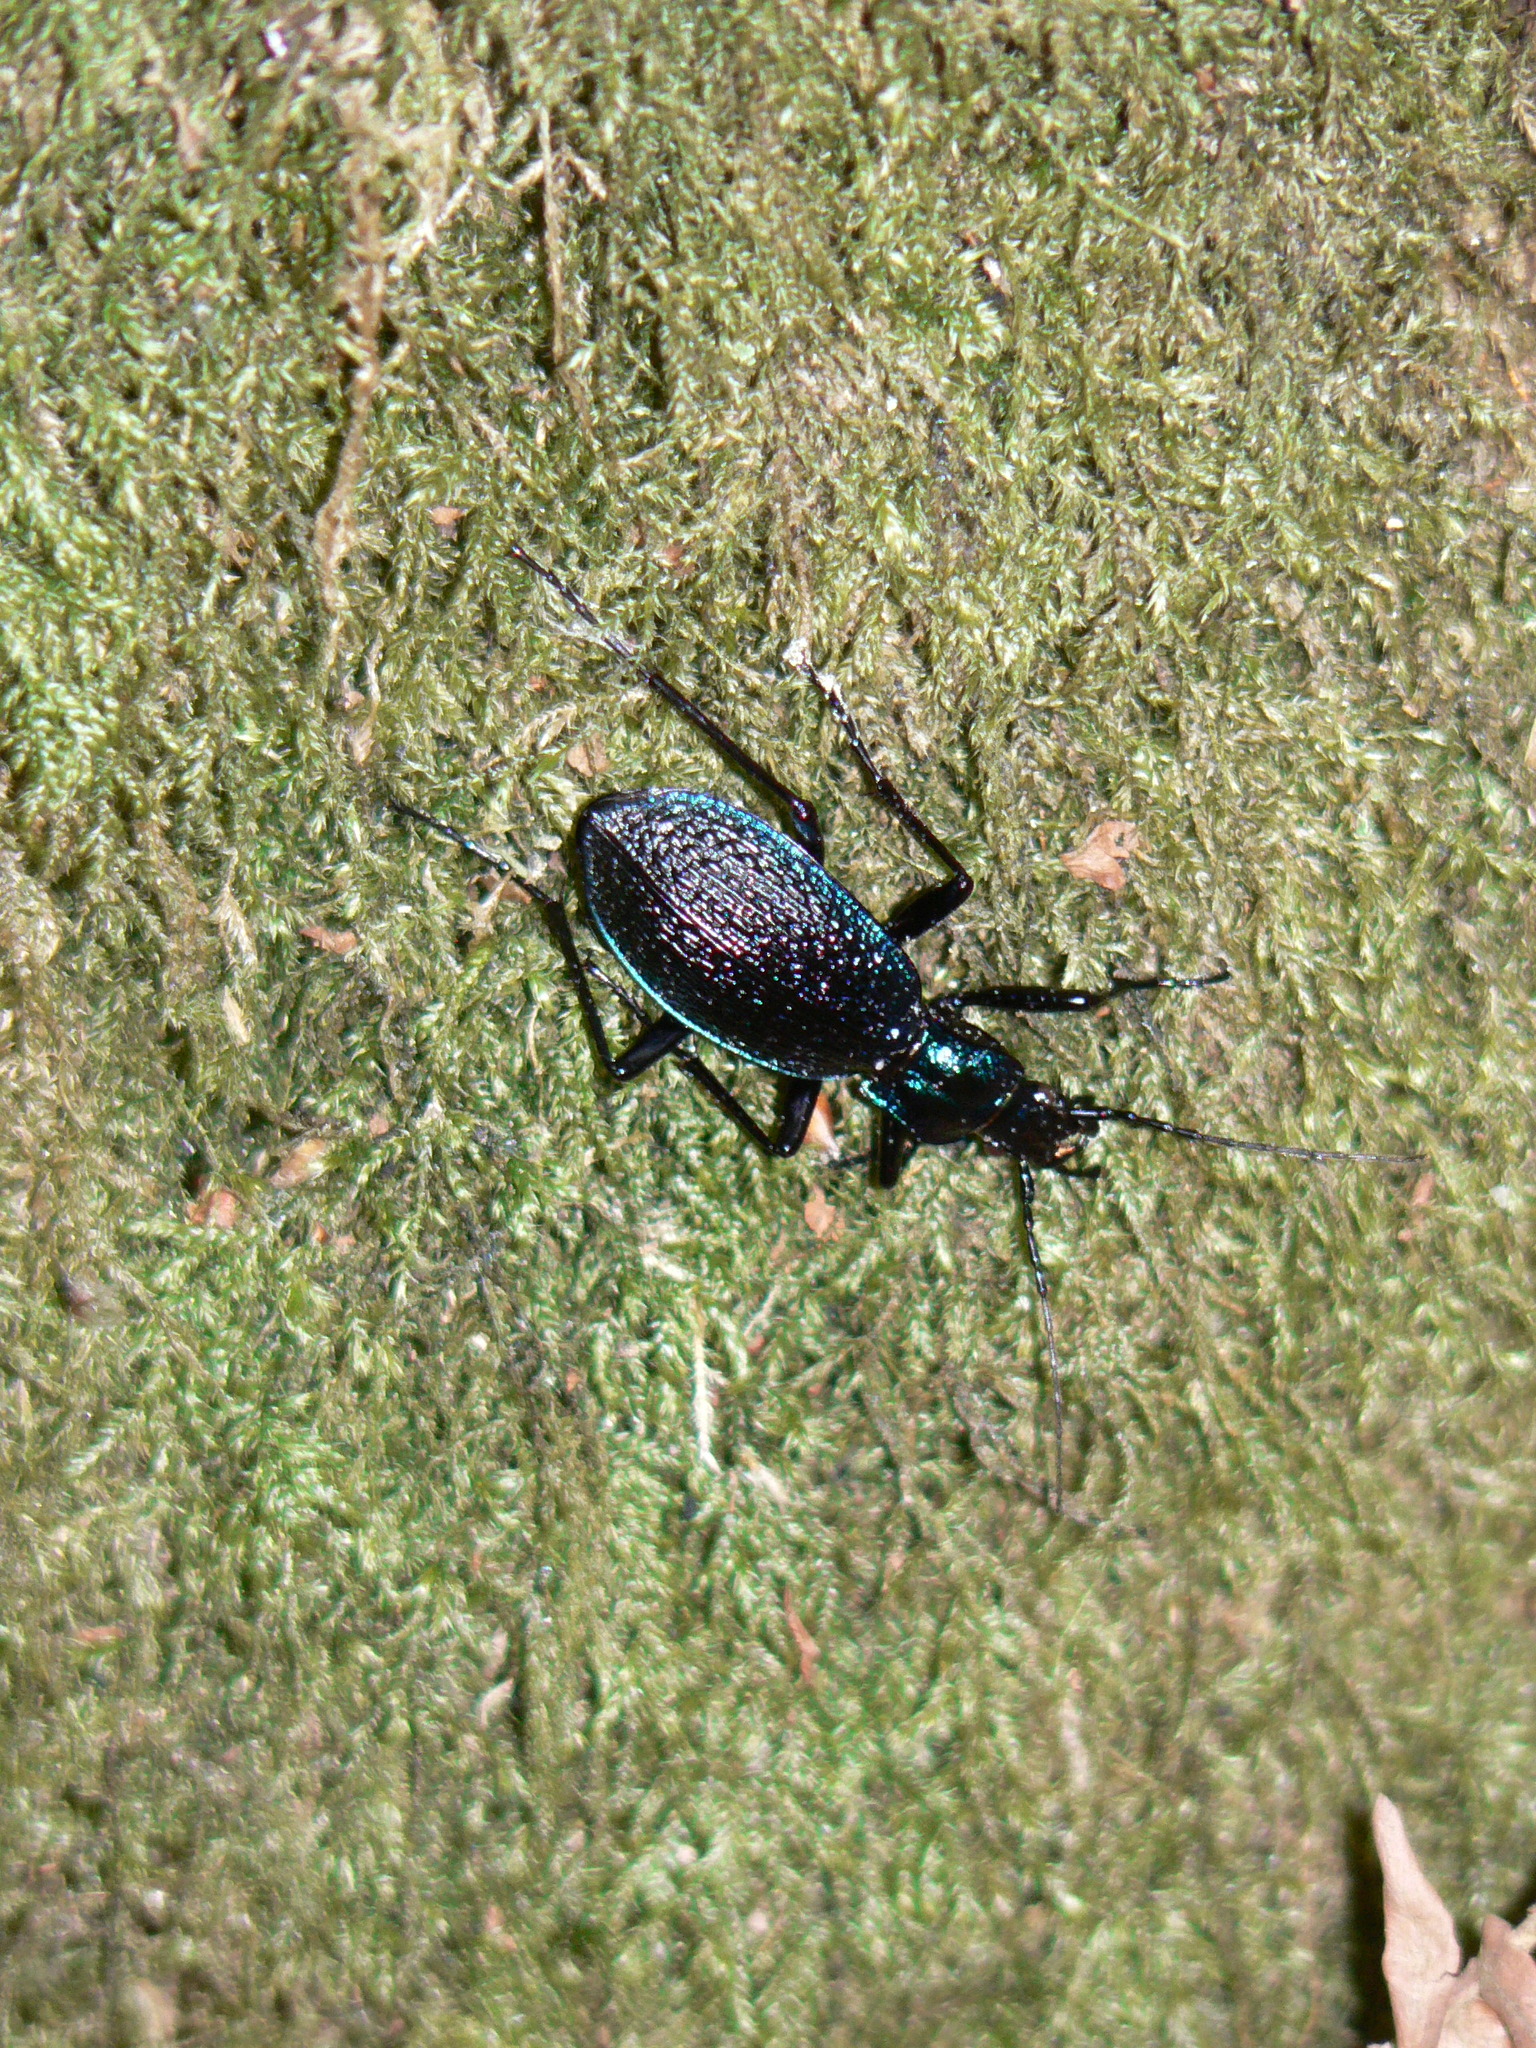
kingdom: Animalia
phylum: Arthropoda
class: Insecta
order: Coleoptera
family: Carabidae
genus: Carabus
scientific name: Carabus intricatus
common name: Blue ground beetle
